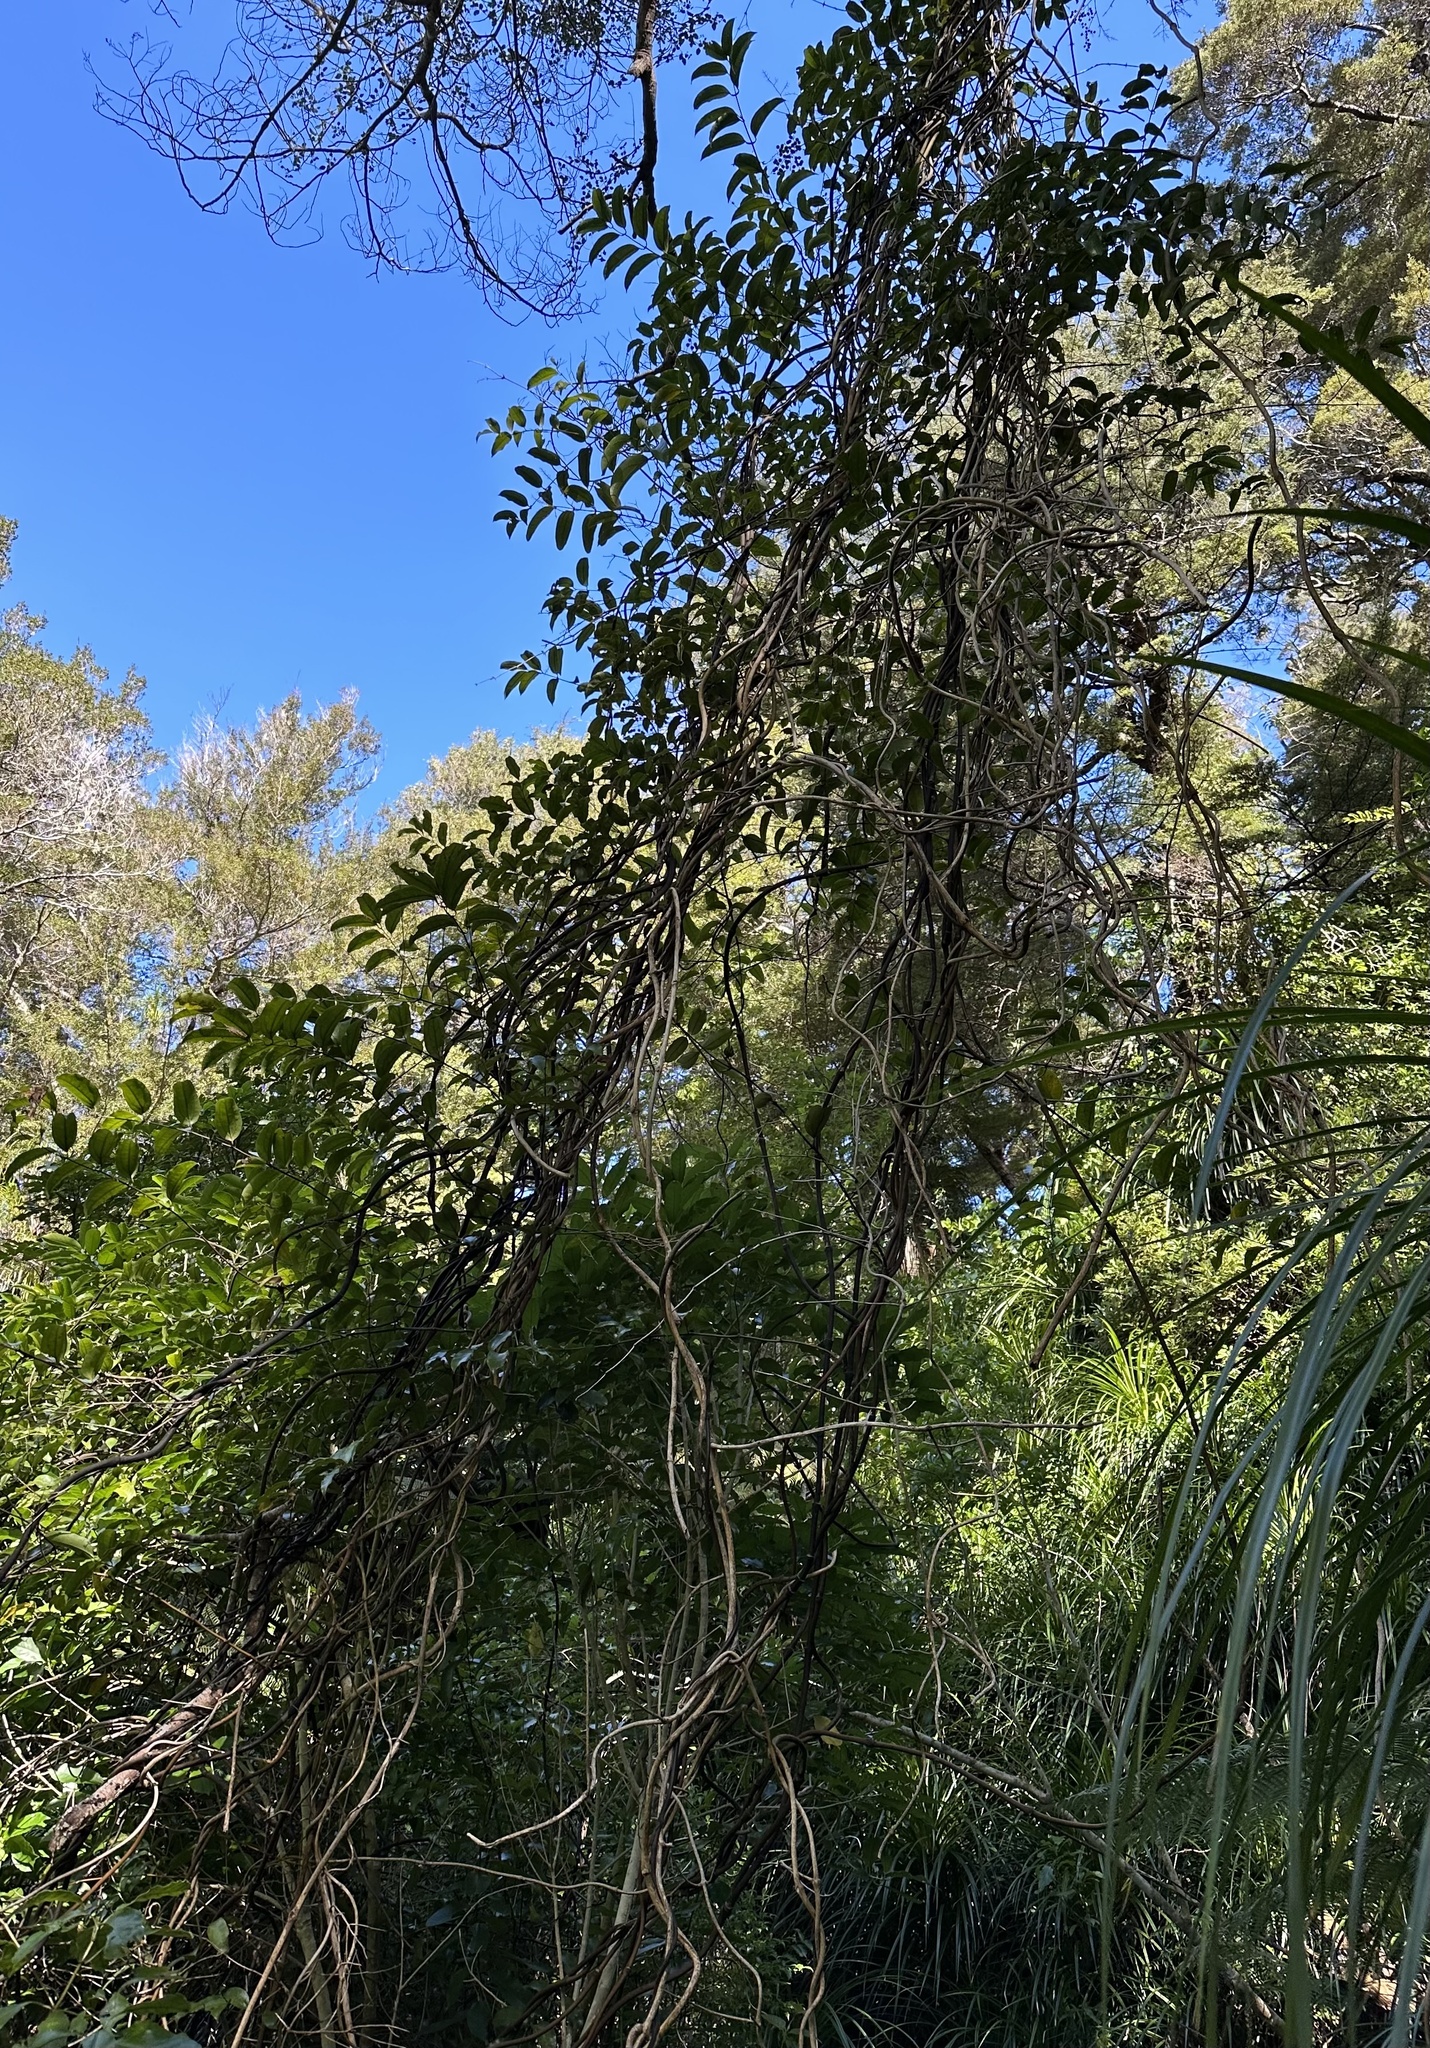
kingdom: Plantae
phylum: Tracheophyta
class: Liliopsida
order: Liliales
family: Ripogonaceae
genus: Ripogonum
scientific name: Ripogonum scandens
